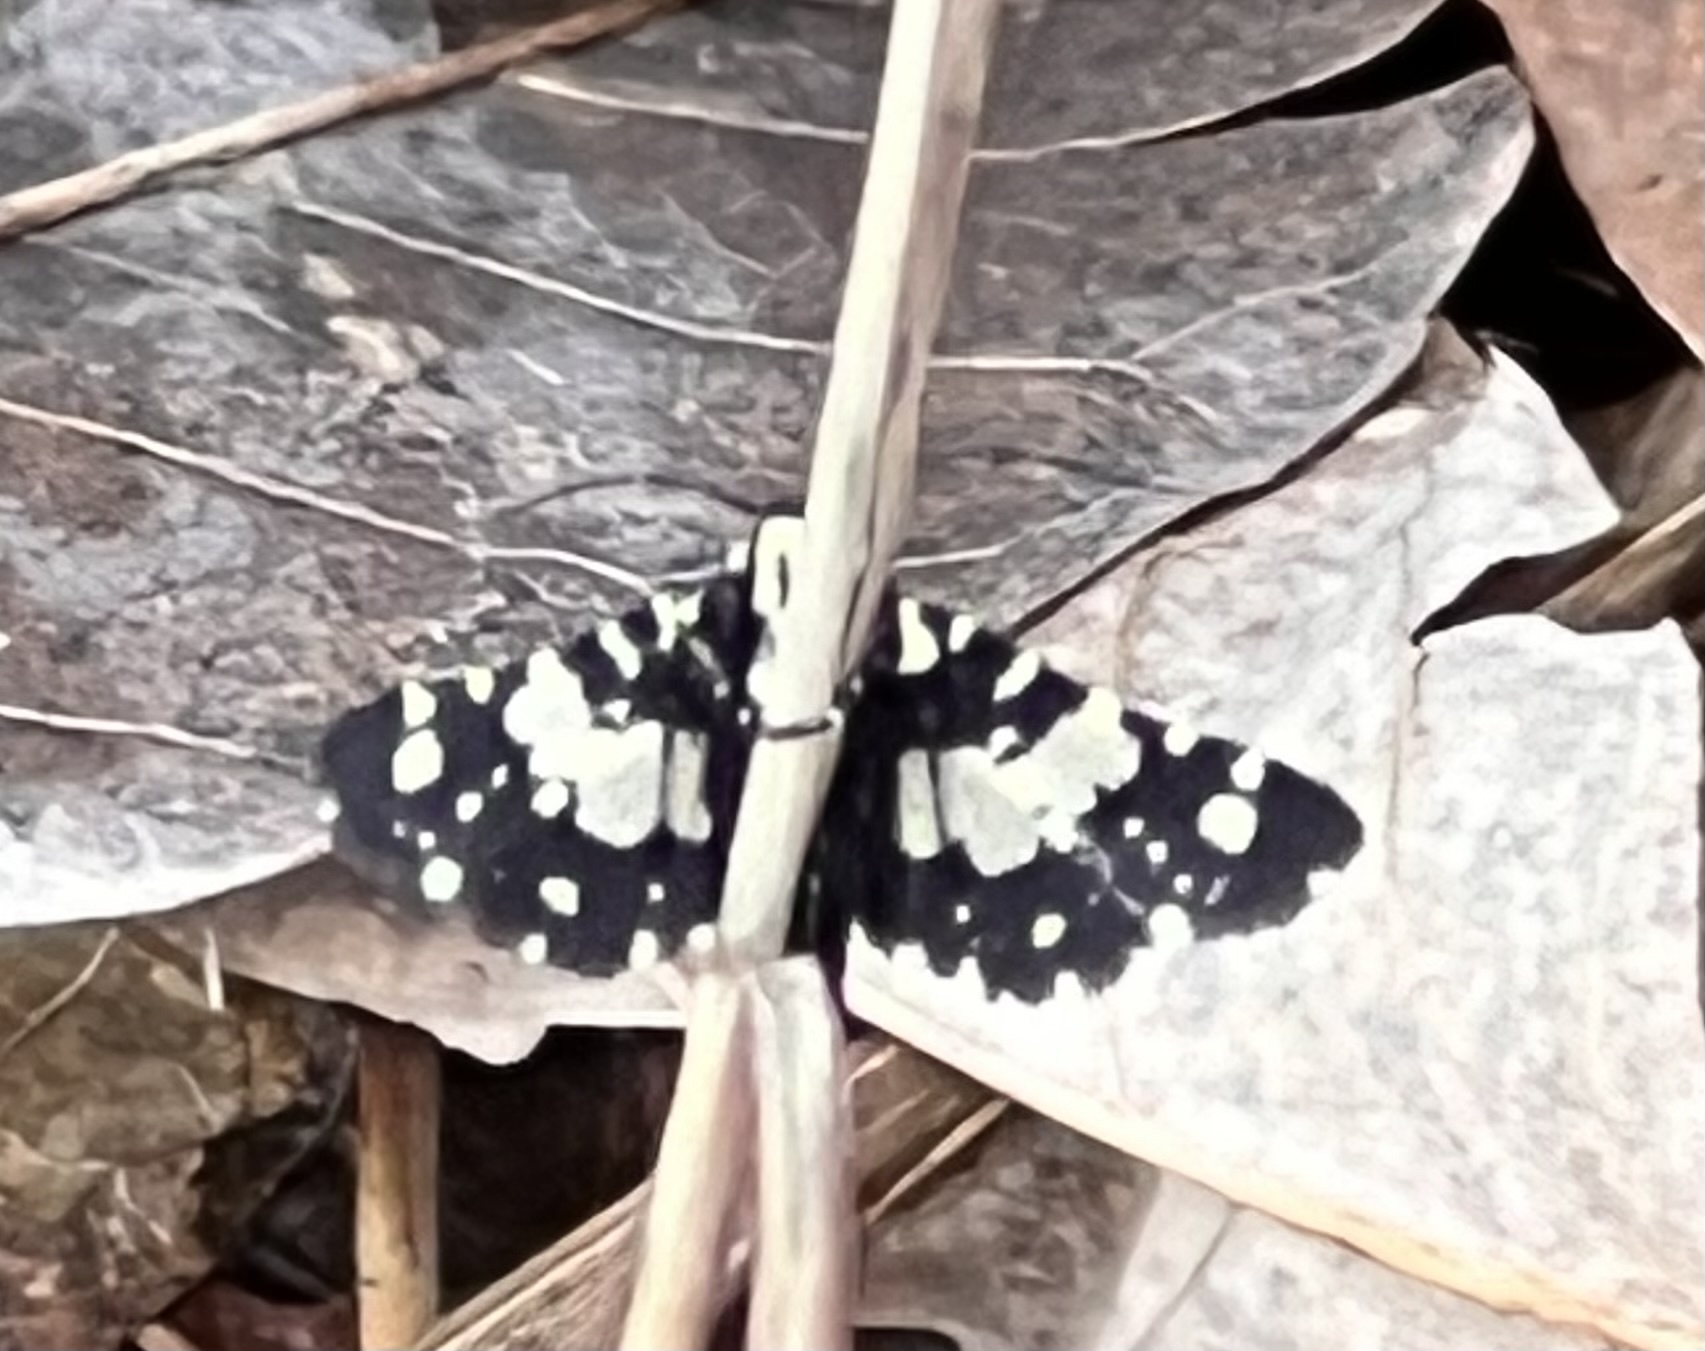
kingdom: Animalia
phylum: Arthropoda
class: Insecta
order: Lepidoptera
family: Thyrididae
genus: Pseudothyris
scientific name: Pseudothyris sepulchralis
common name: Mournful thyris moth
